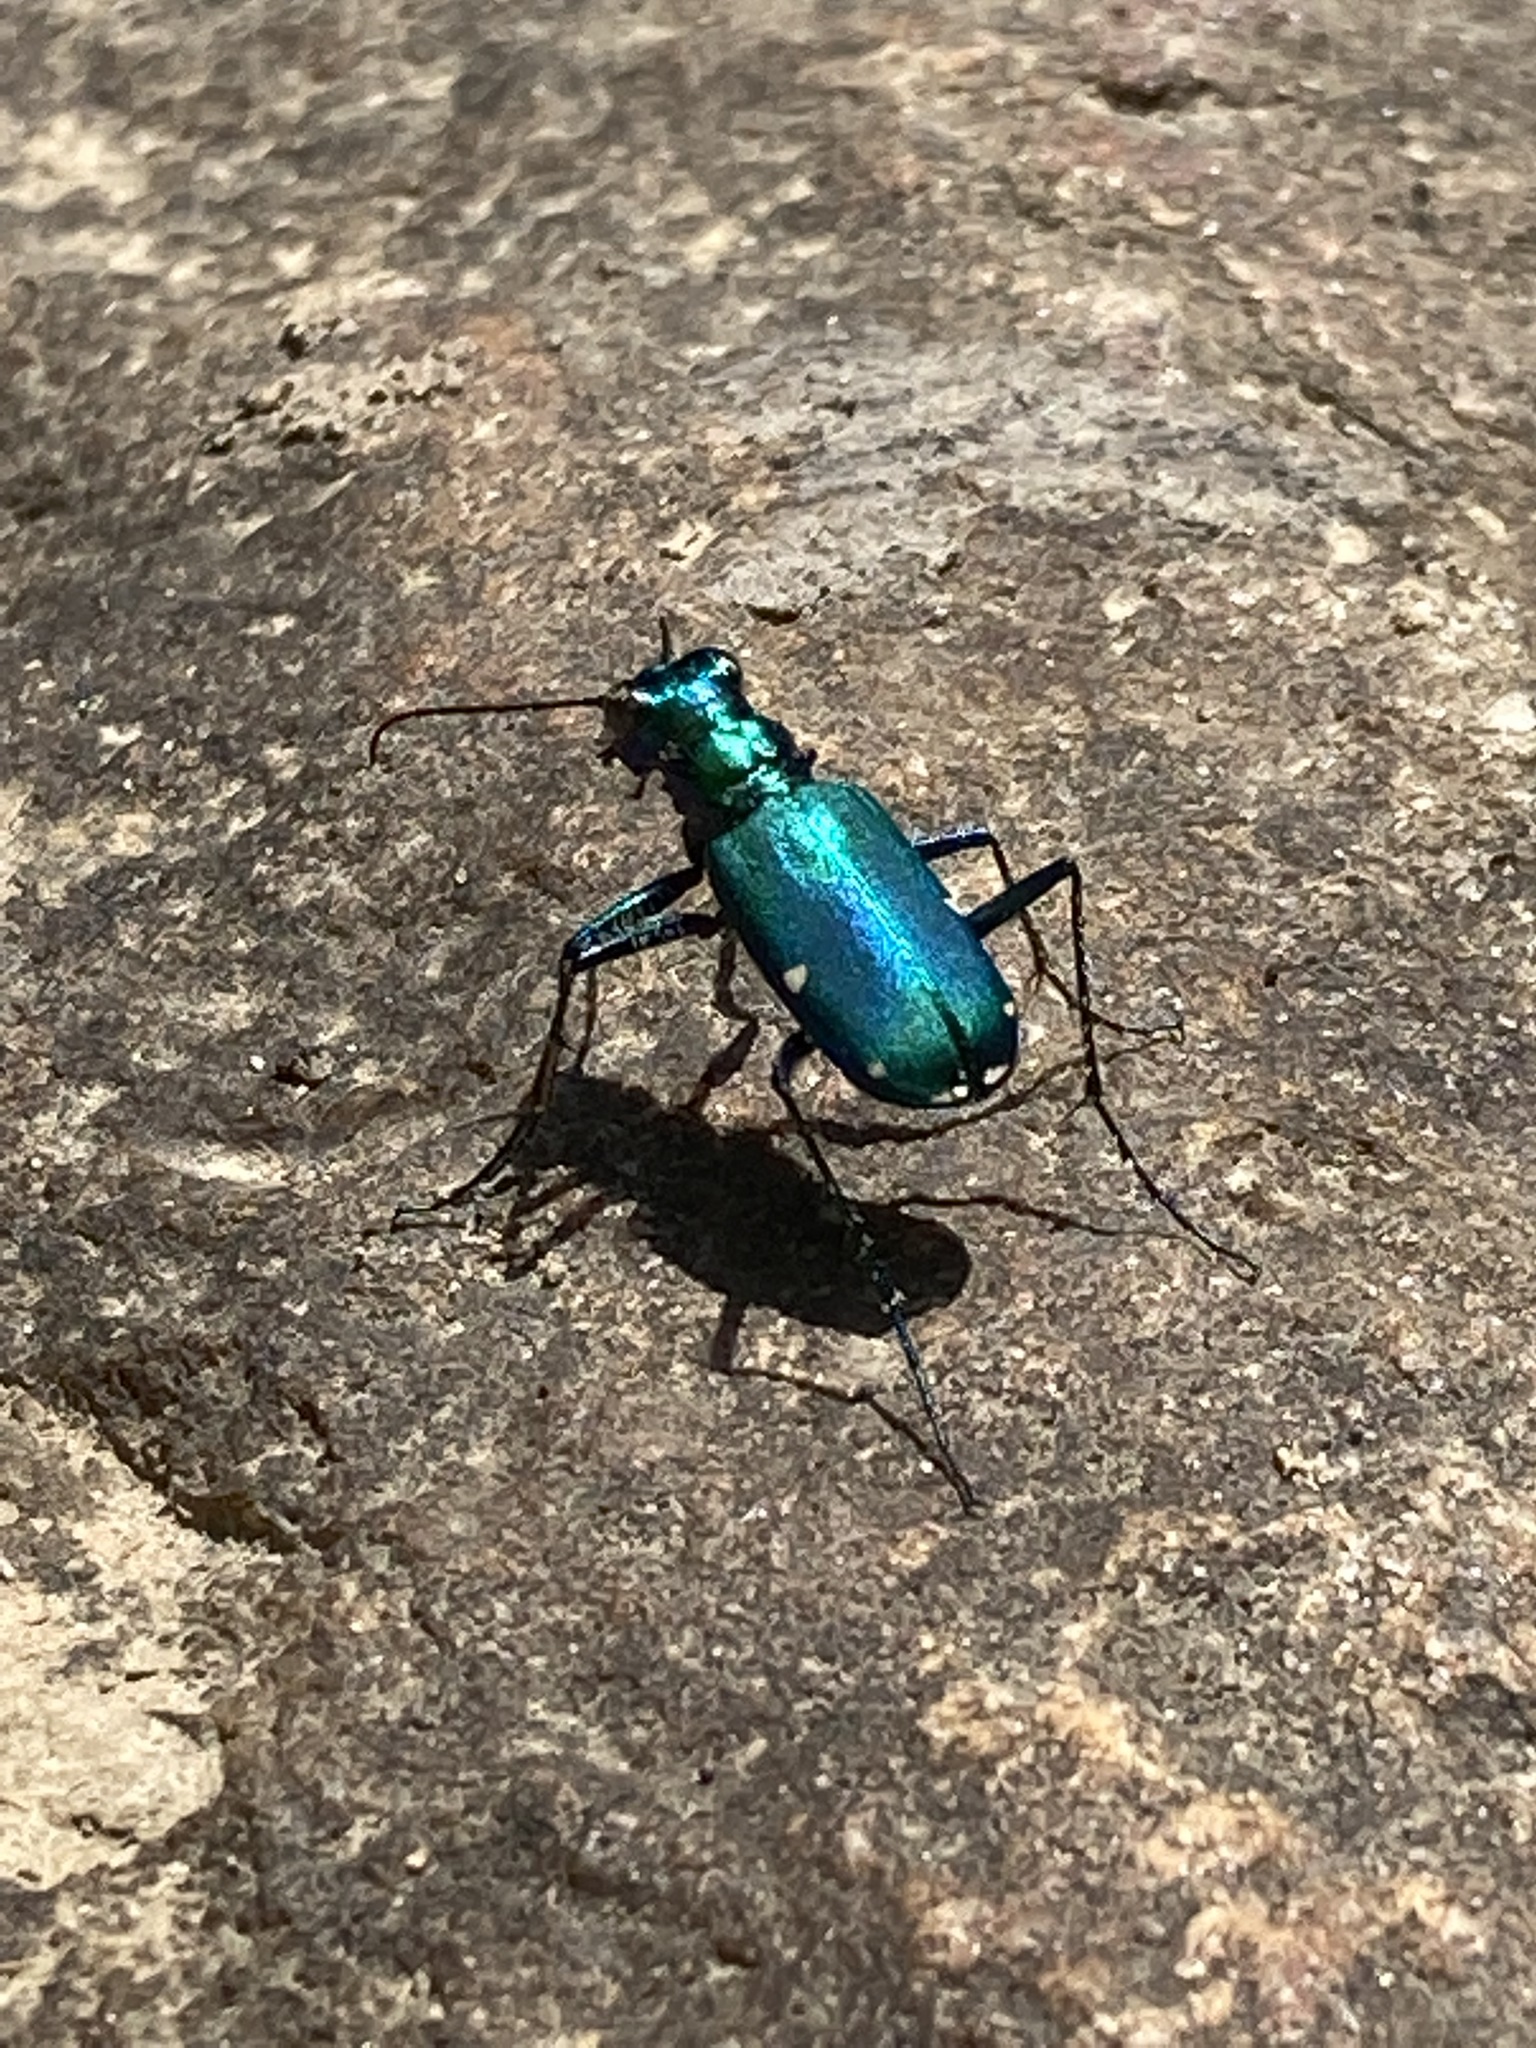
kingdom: Animalia
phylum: Arthropoda
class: Insecta
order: Coleoptera
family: Carabidae
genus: Cicindela
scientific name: Cicindela sexguttata
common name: Six-spotted tiger beetle
